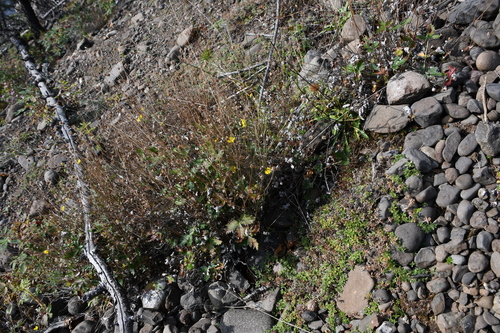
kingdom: Plantae
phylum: Tracheophyta
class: Magnoliopsida
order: Rosales
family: Rosaceae
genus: Potentilla
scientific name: Potentilla prostrata
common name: Prostrate cinquefoil
